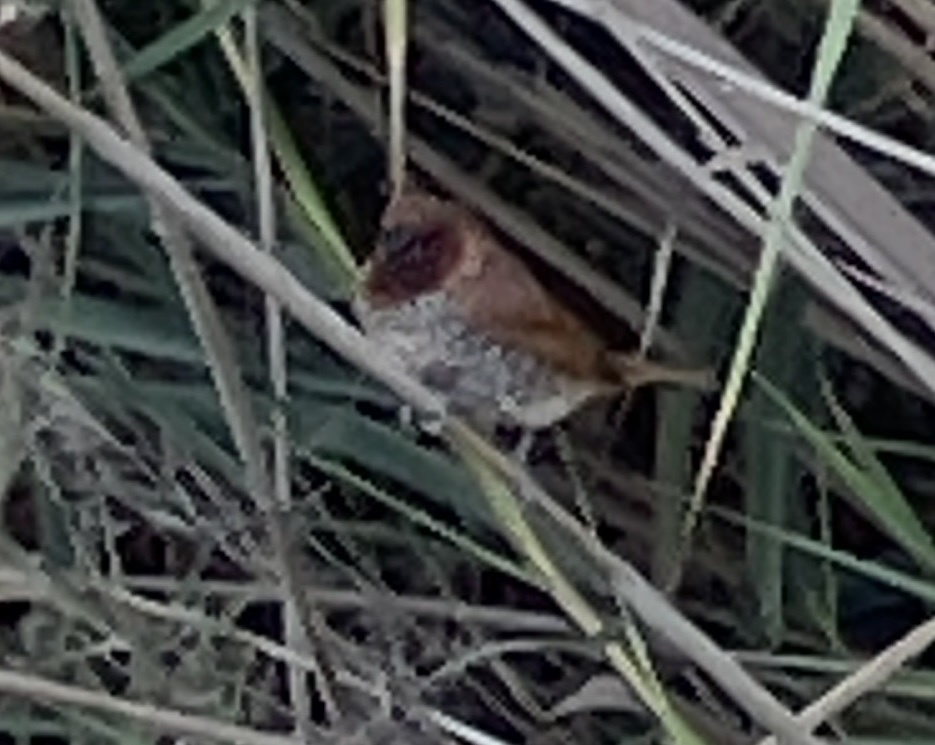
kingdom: Animalia
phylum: Chordata
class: Aves
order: Passeriformes
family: Estrildidae
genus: Lonchura
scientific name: Lonchura punctulata
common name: Scaly-breasted munia
